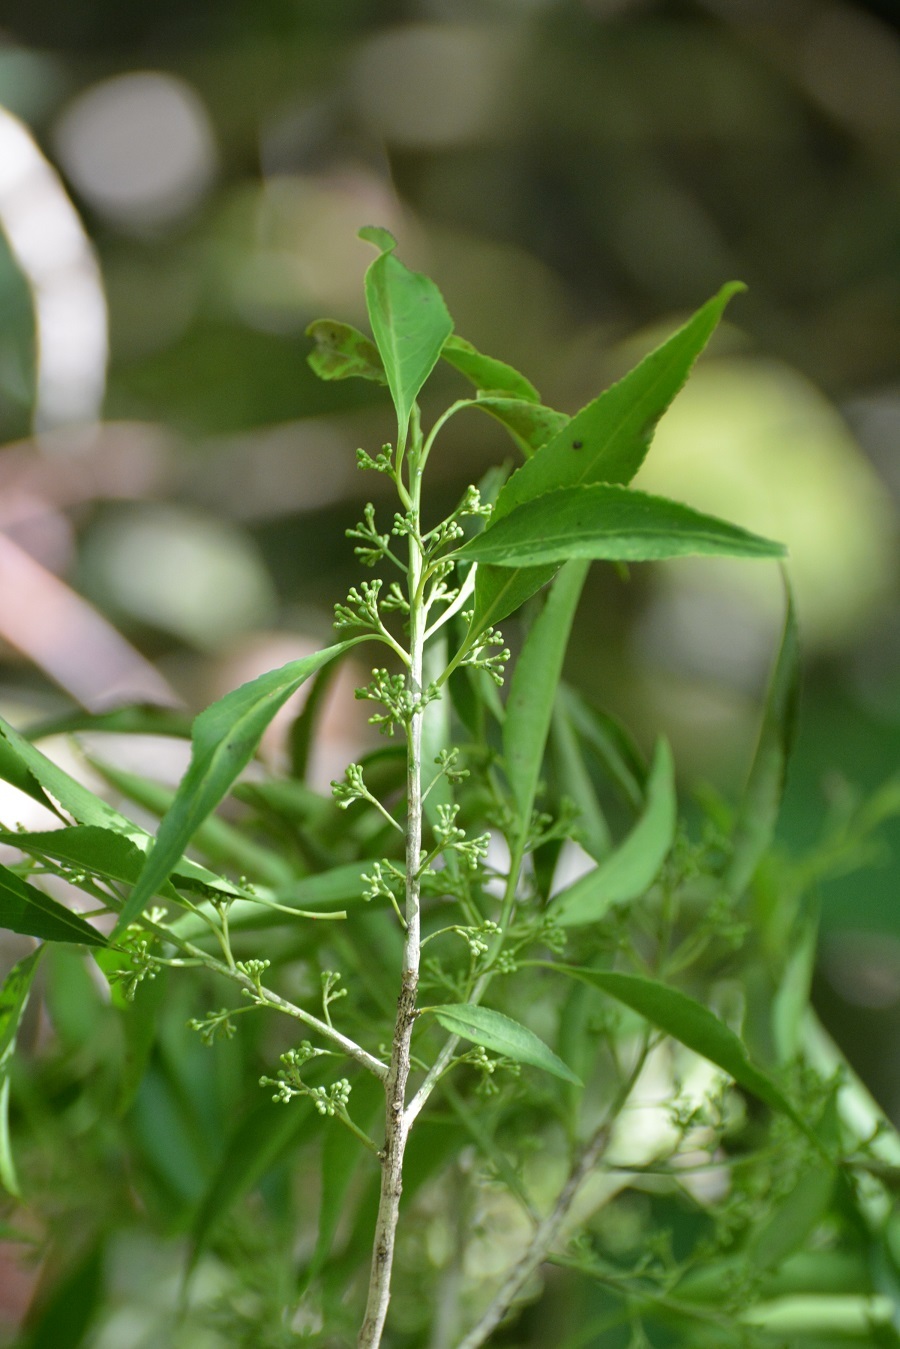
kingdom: Plantae
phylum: Tracheophyta
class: Magnoliopsida
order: Celastrales
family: Celastraceae
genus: Monteverdia
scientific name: Monteverdia chiapensis
